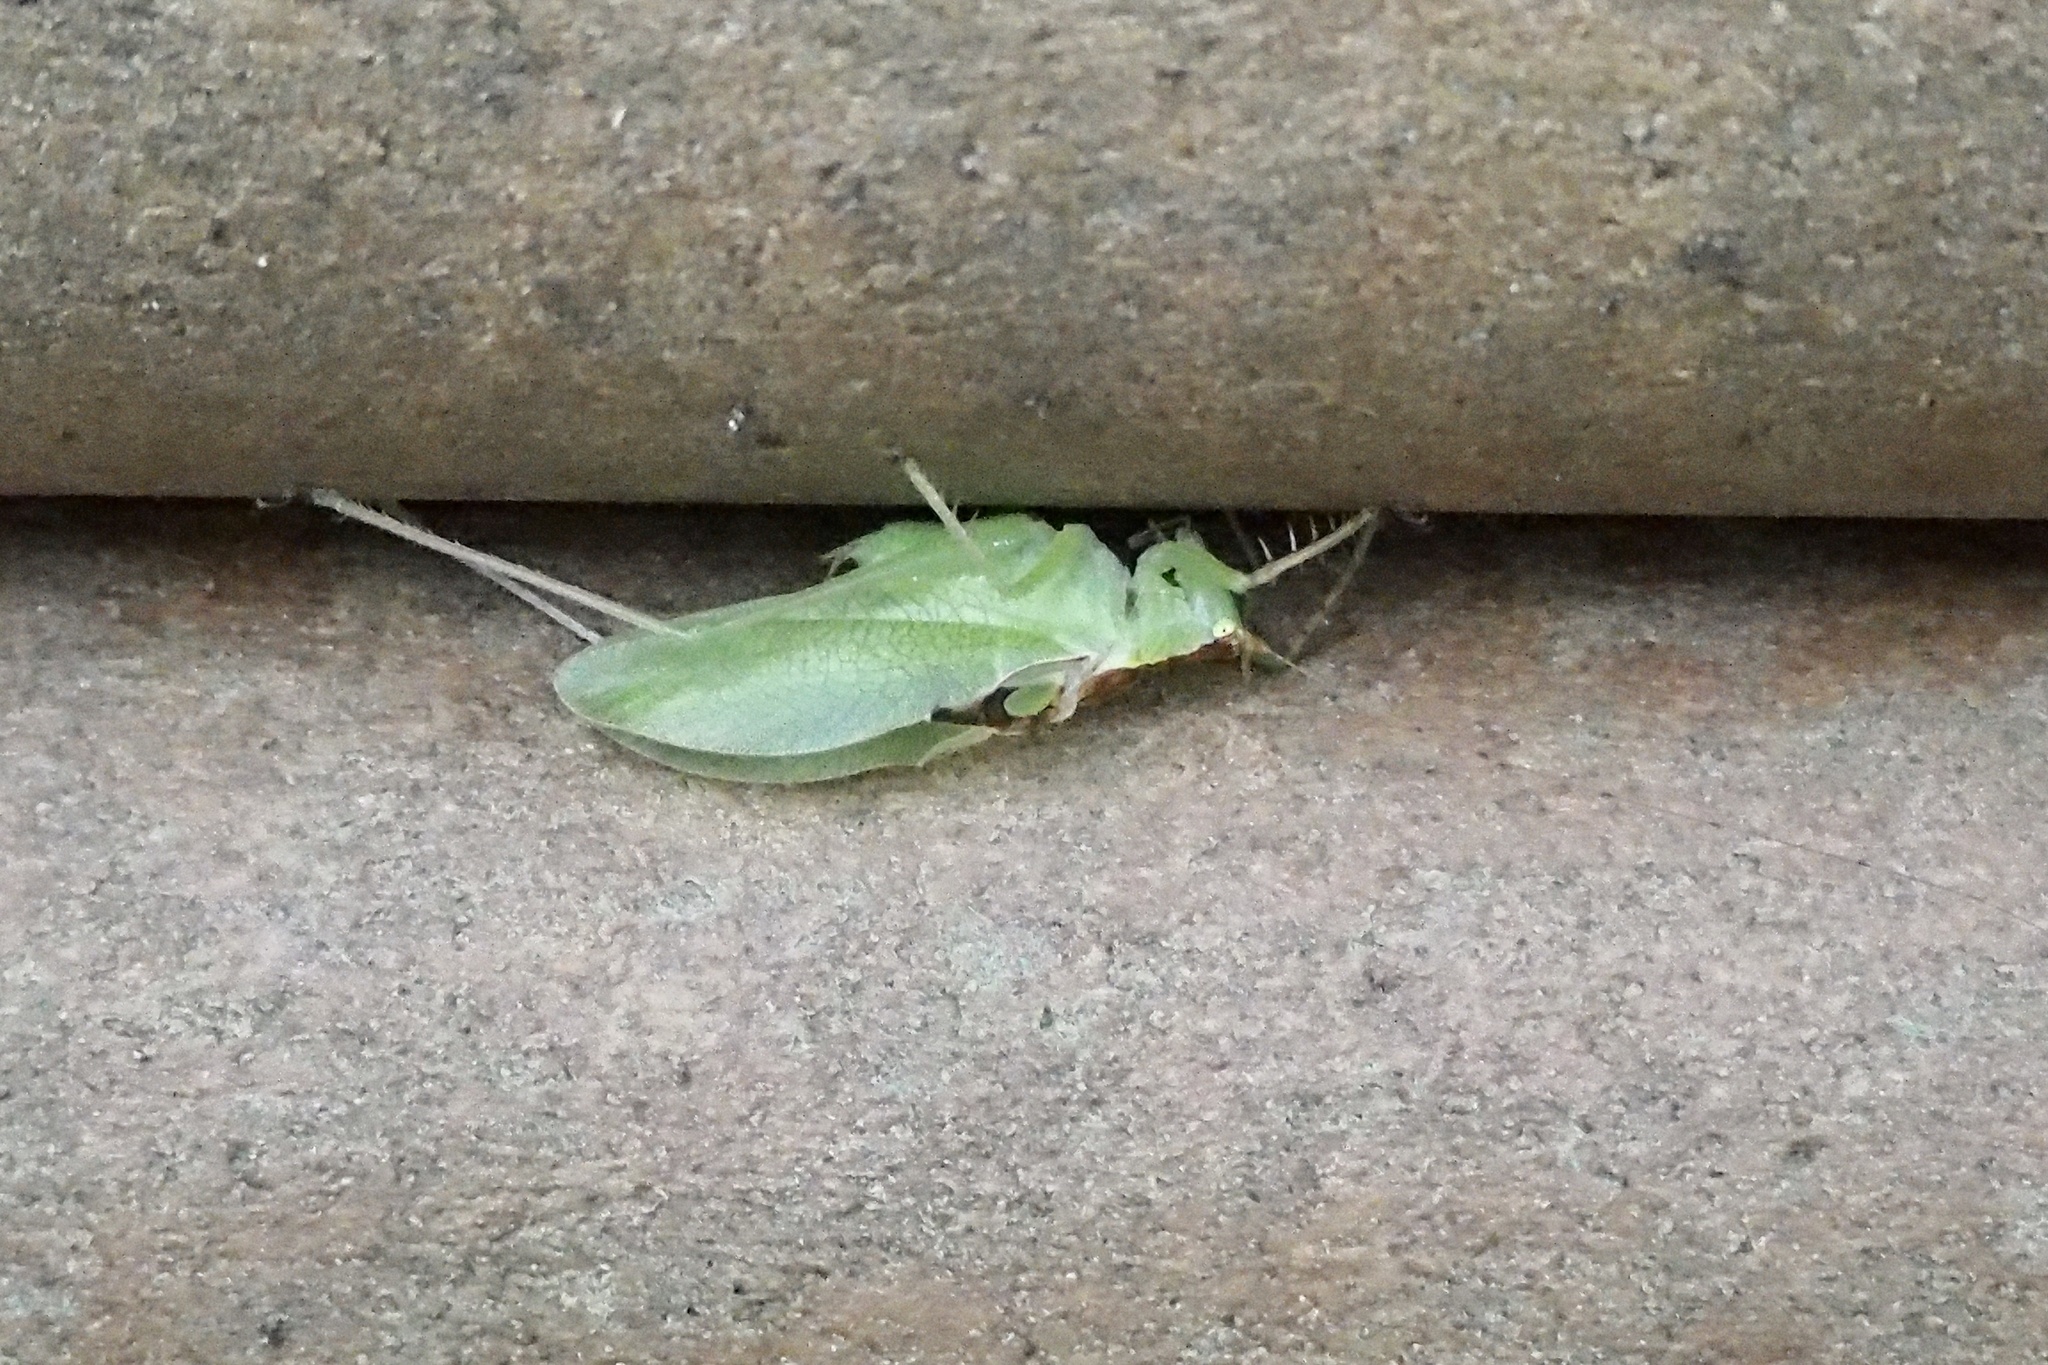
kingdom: Animalia
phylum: Arthropoda
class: Insecta
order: Orthoptera
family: Tettigoniidae
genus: Hexacentrus
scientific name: Hexacentrus hareyamai
